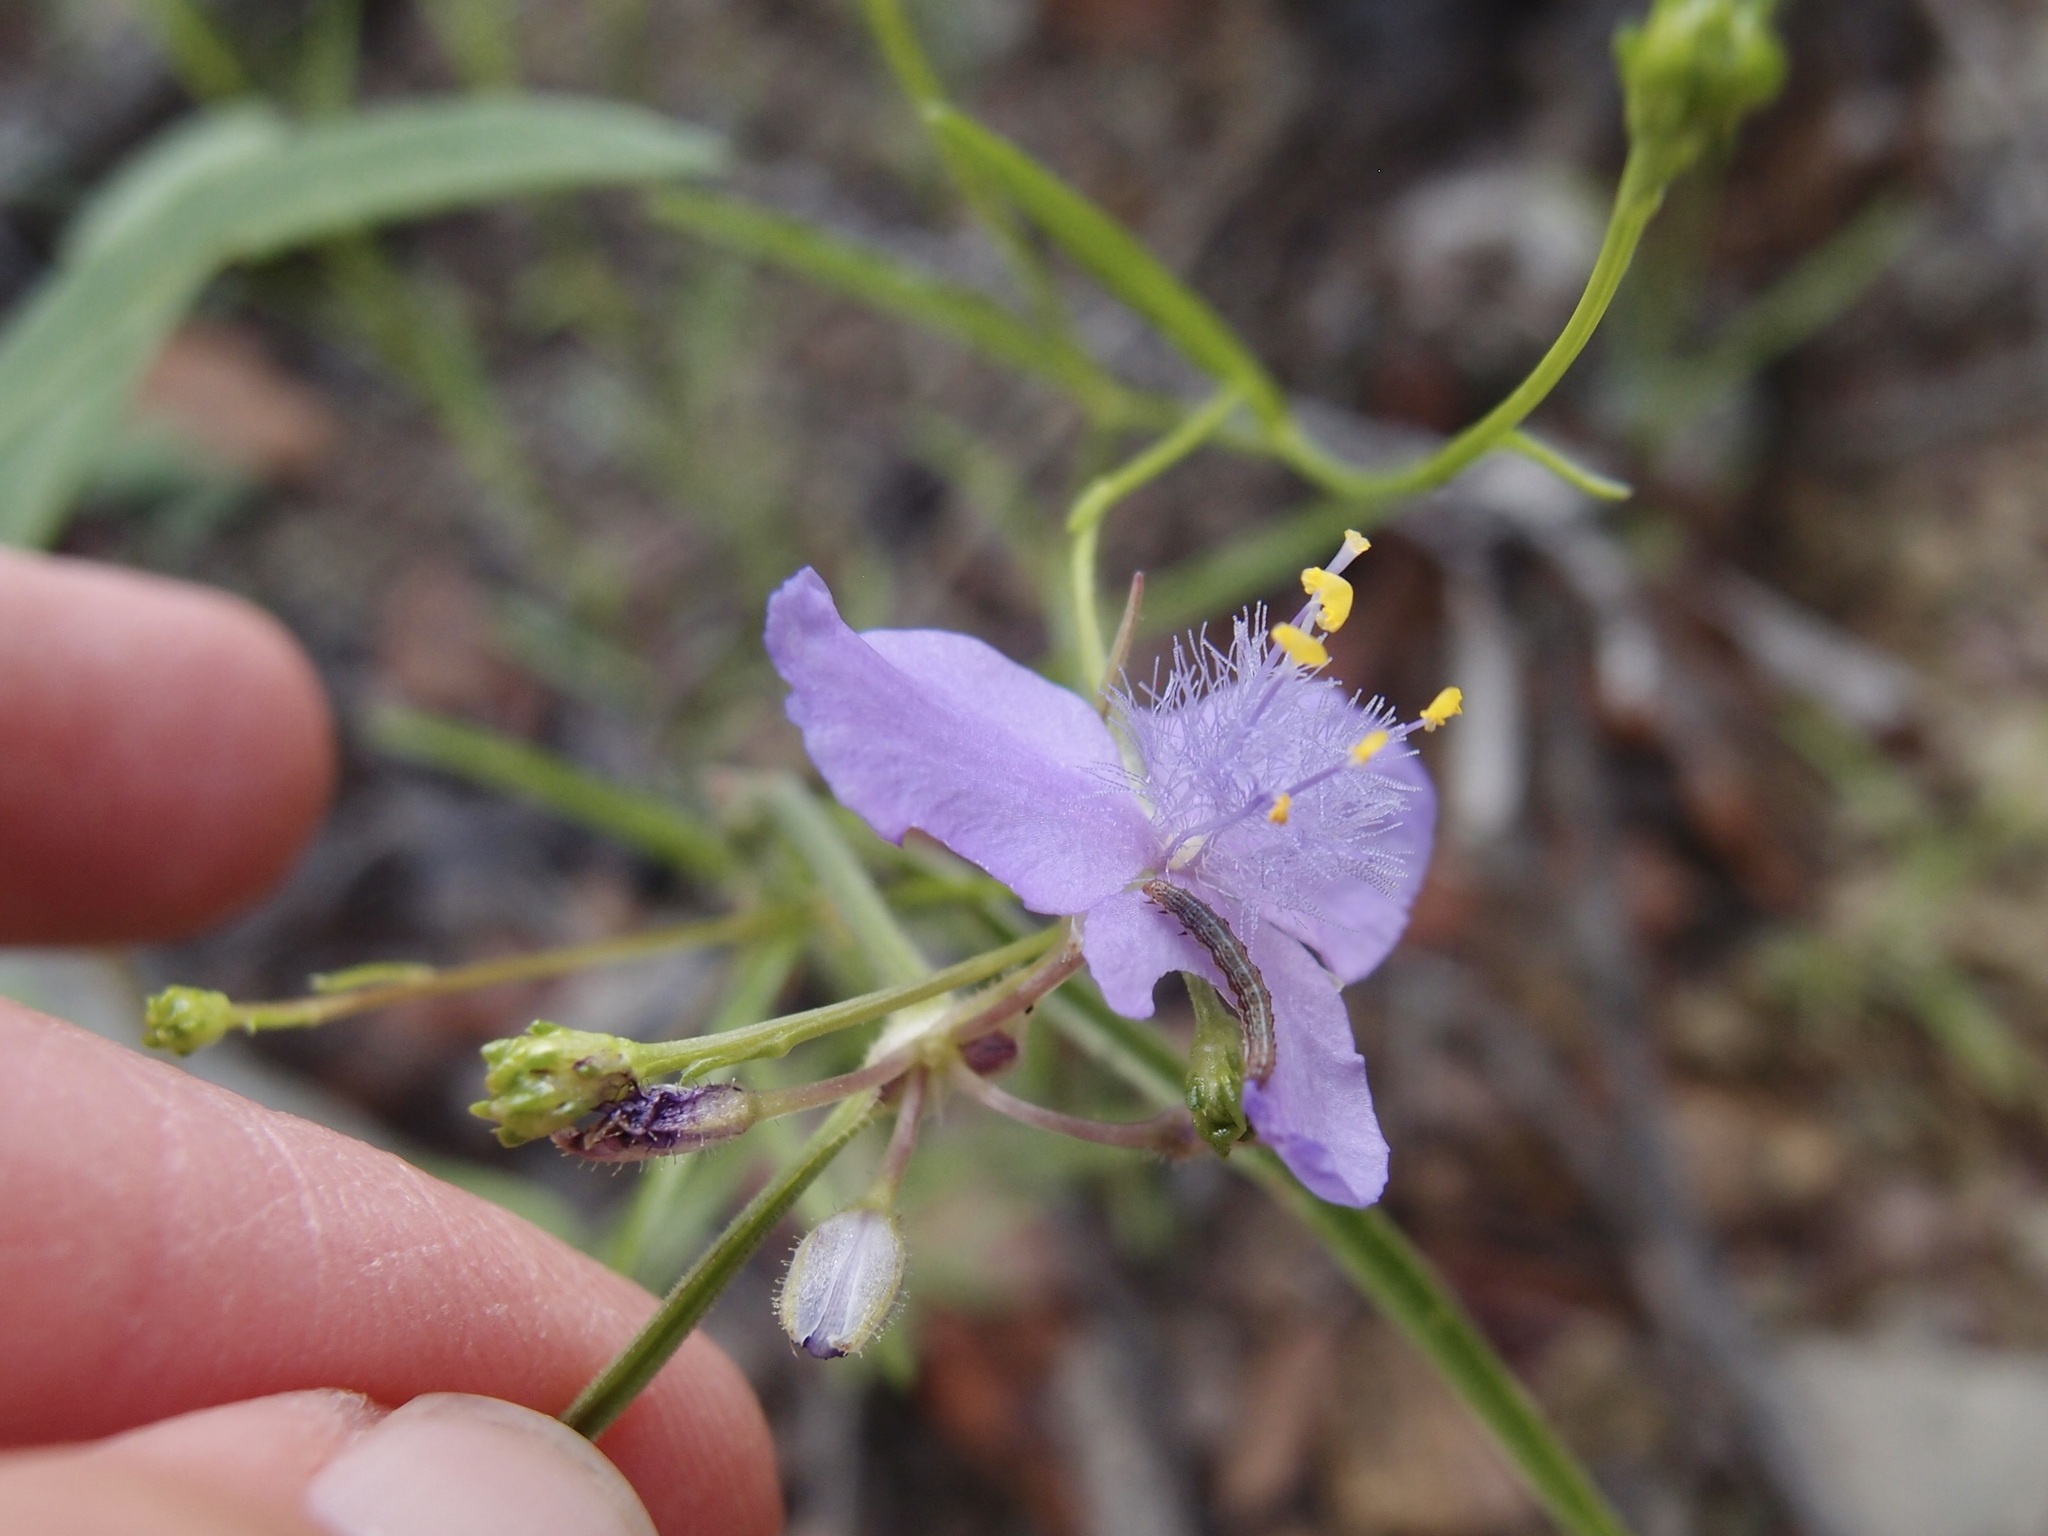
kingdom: Plantae
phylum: Tracheophyta
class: Liliopsida
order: Commelinales
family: Commelinaceae
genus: Tradescantia
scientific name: Tradescantia pinetorum
